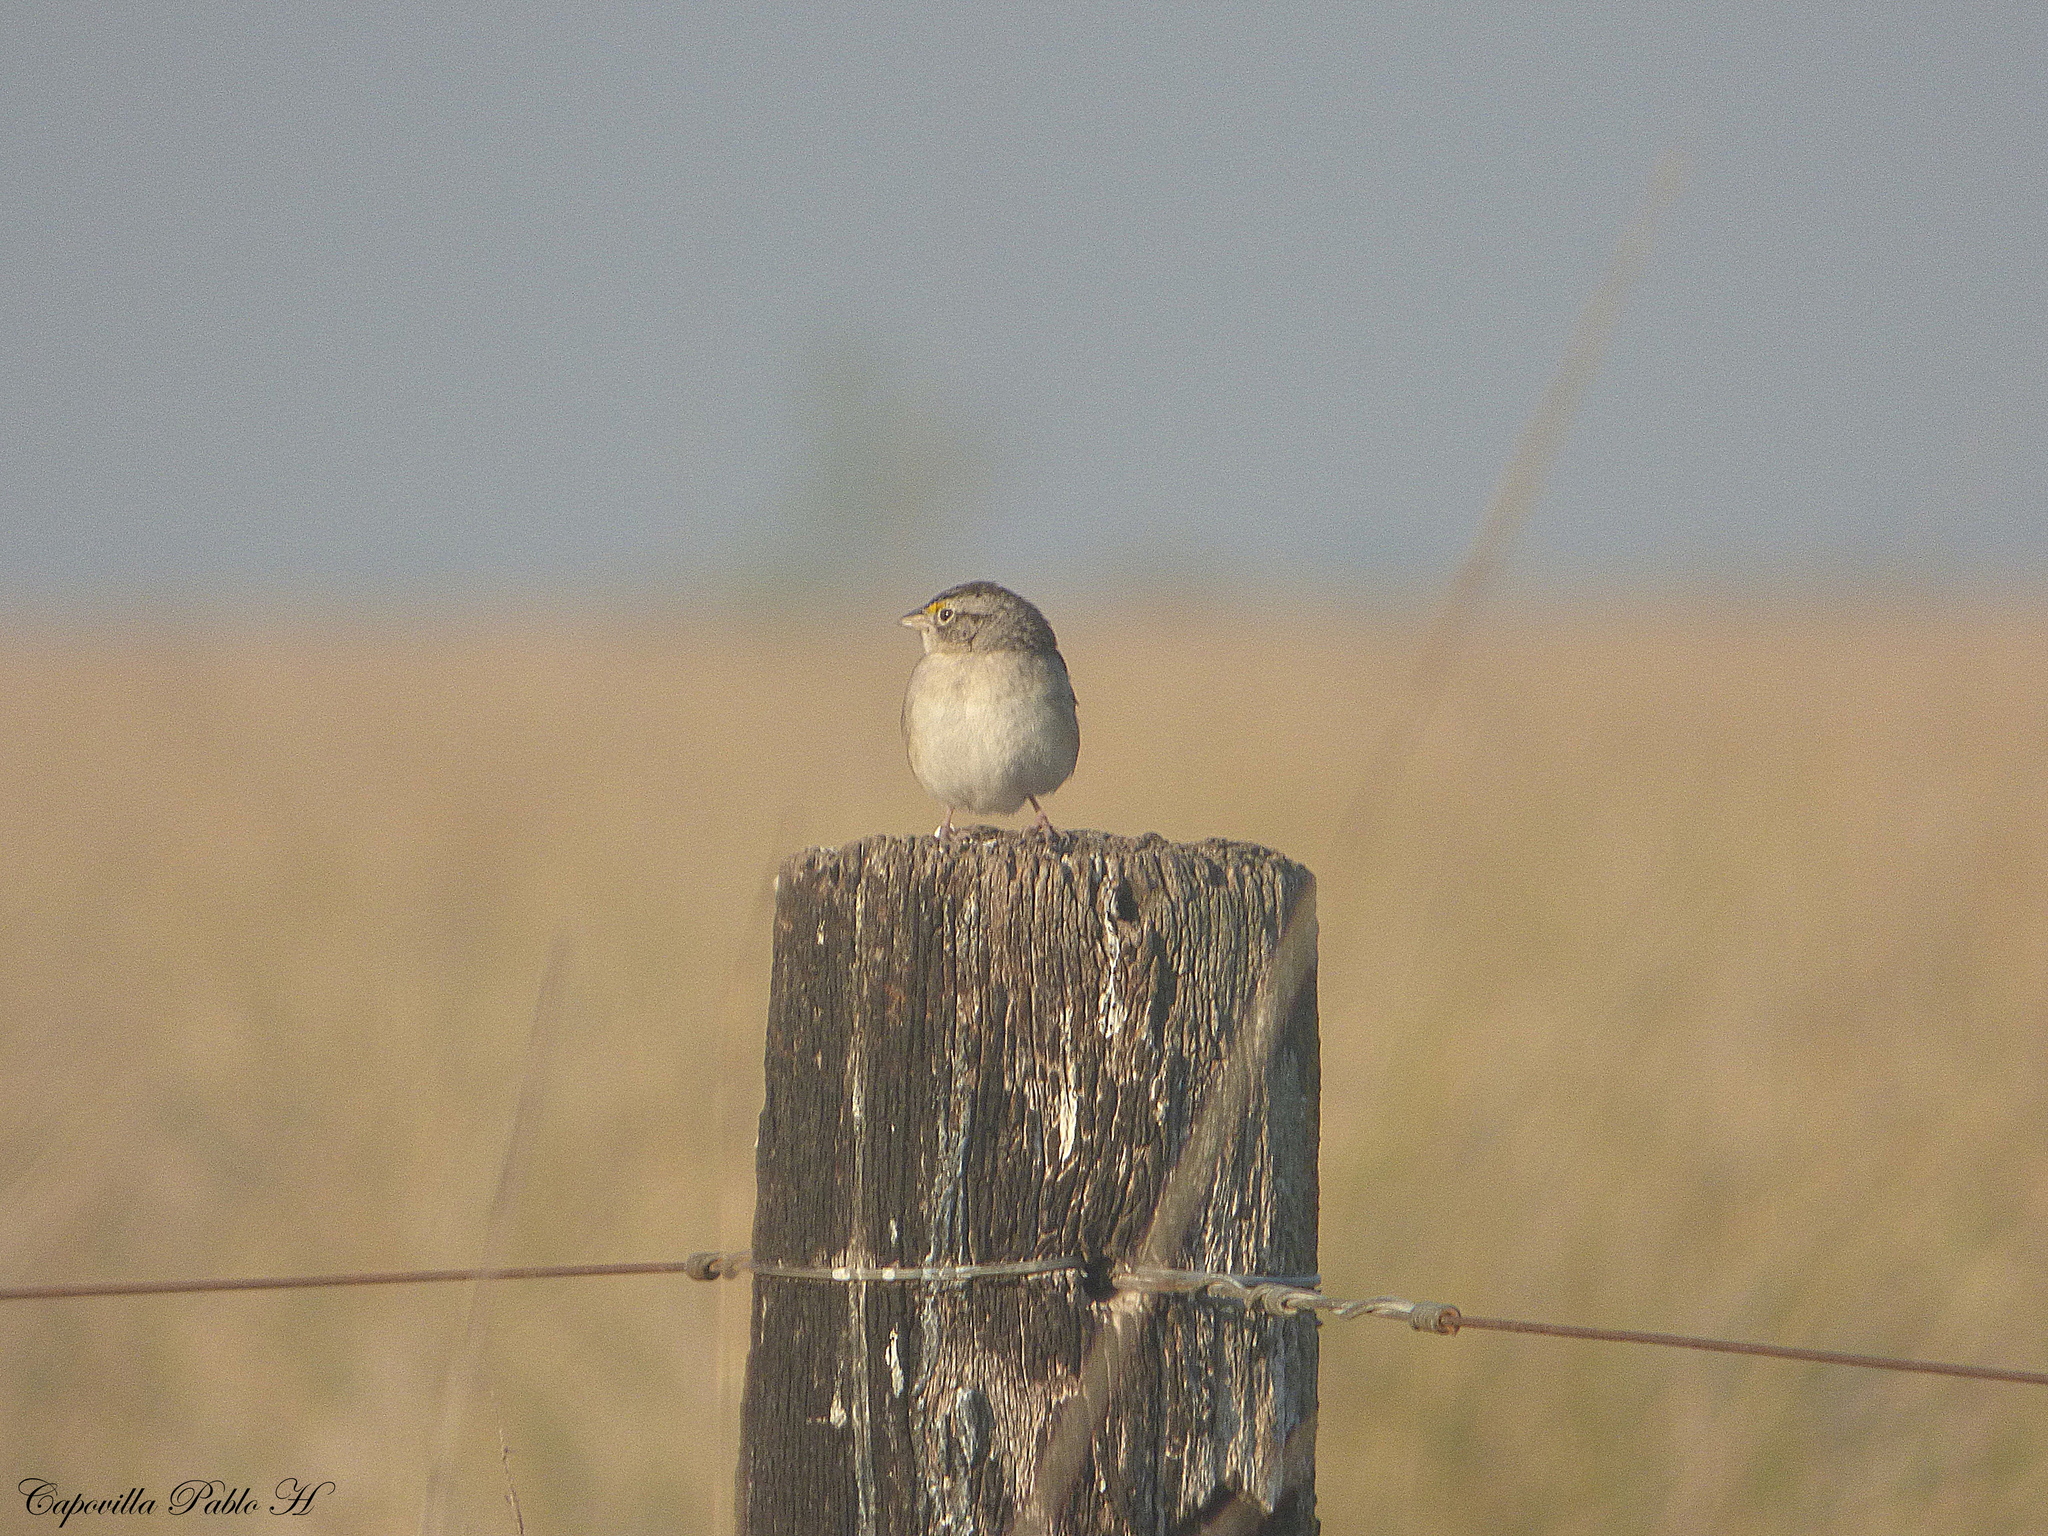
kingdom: Animalia
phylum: Chordata
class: Aves
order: Passeriformes
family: Passerellidae
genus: Ammodramus
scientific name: Ammodramus humeralis
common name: Grassland sparrow
